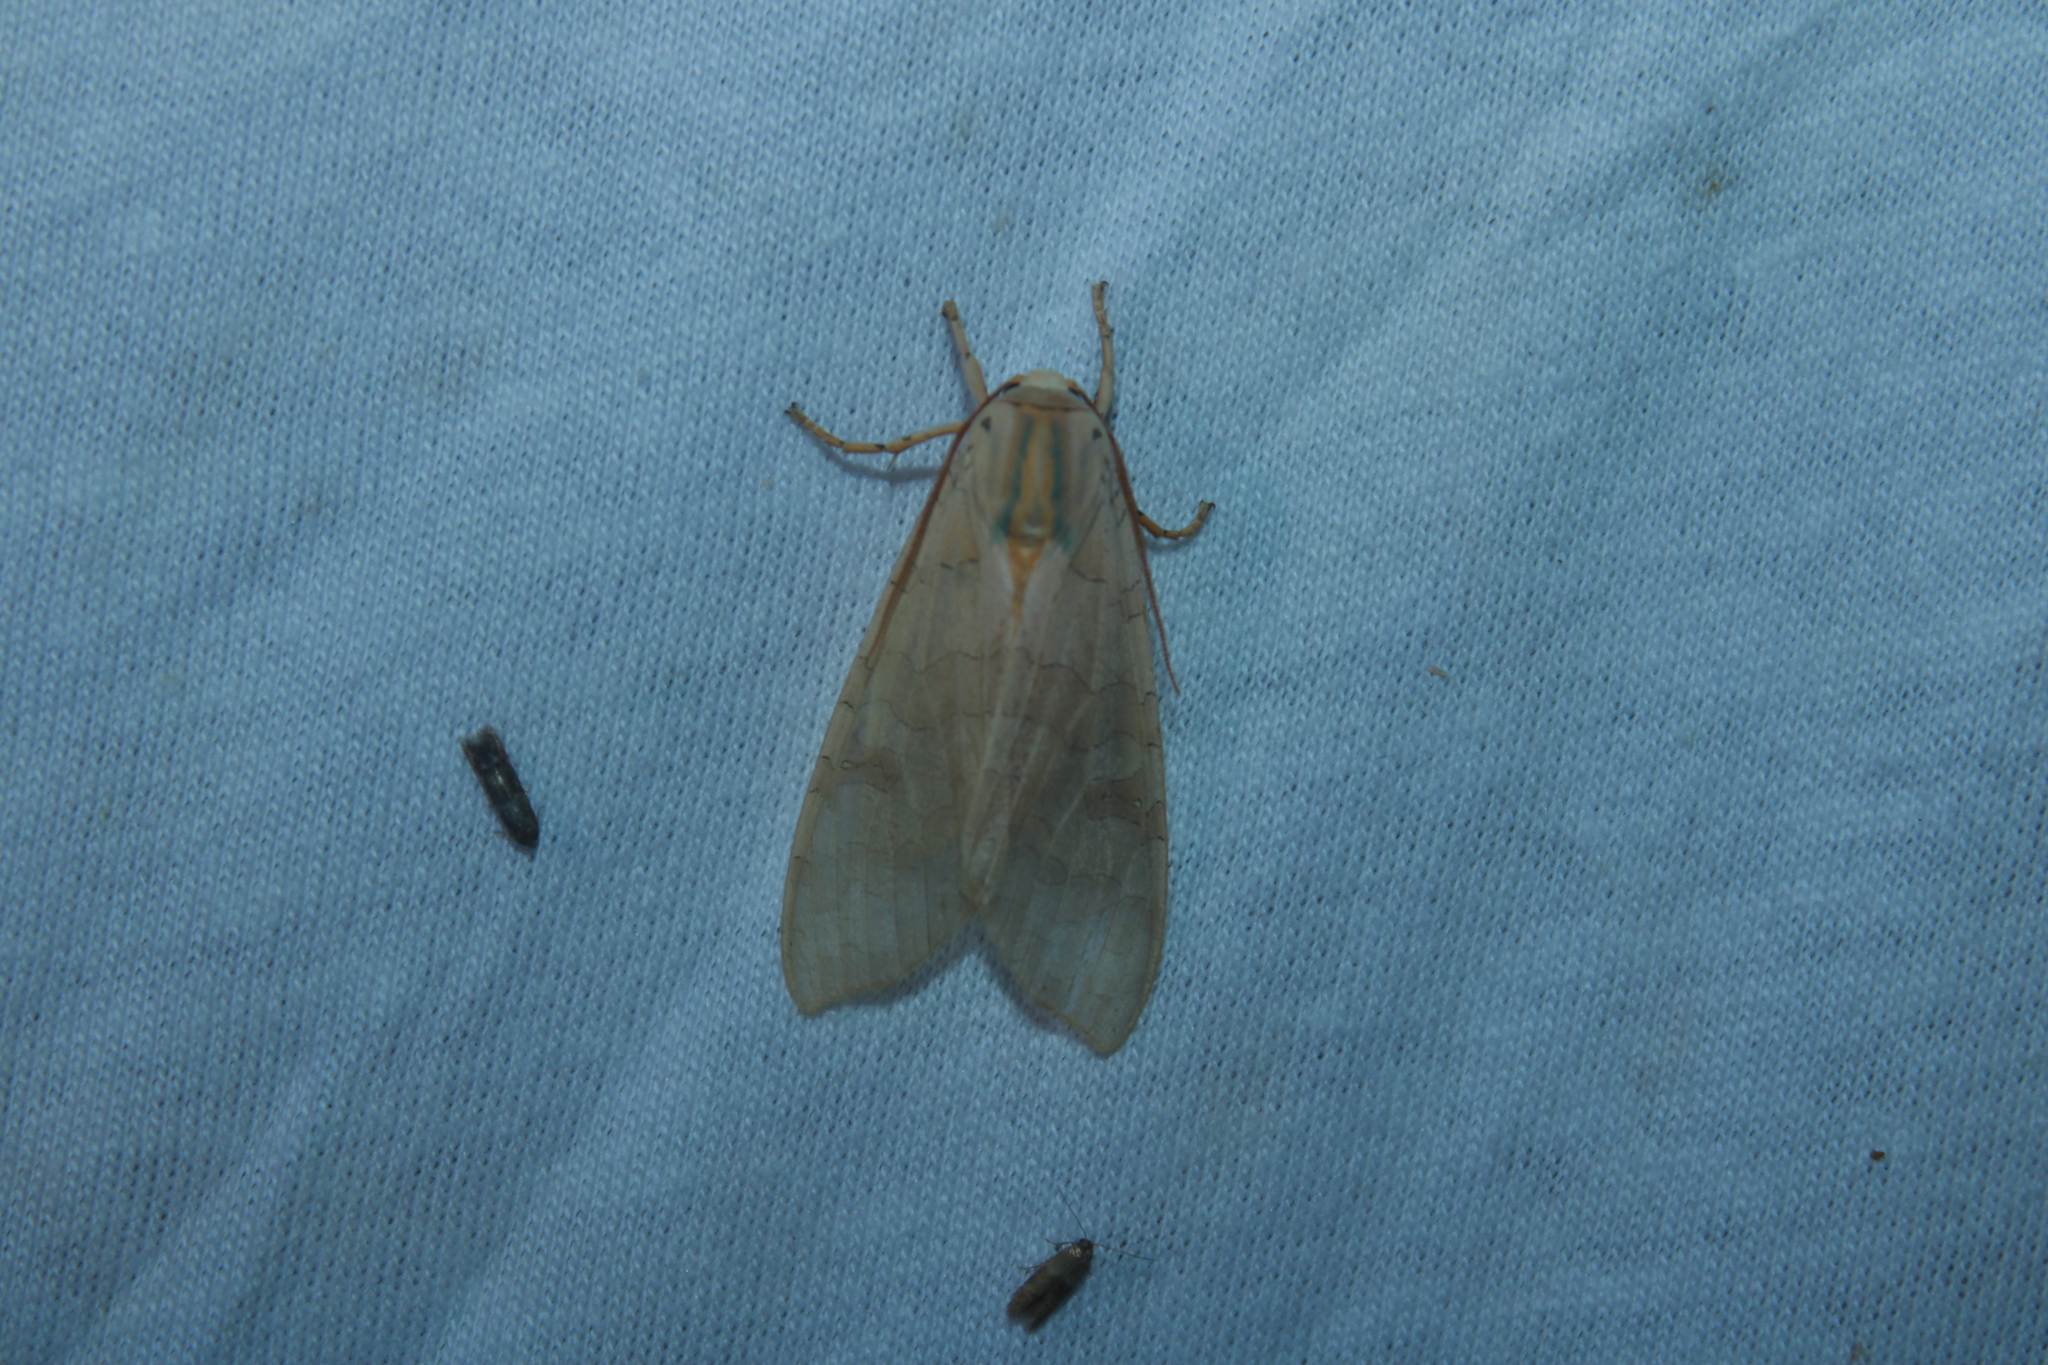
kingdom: Animalia
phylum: Arthropoda
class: Insecta
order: Lepidoptera
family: Erebidae
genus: Halysidota
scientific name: Halysidota
